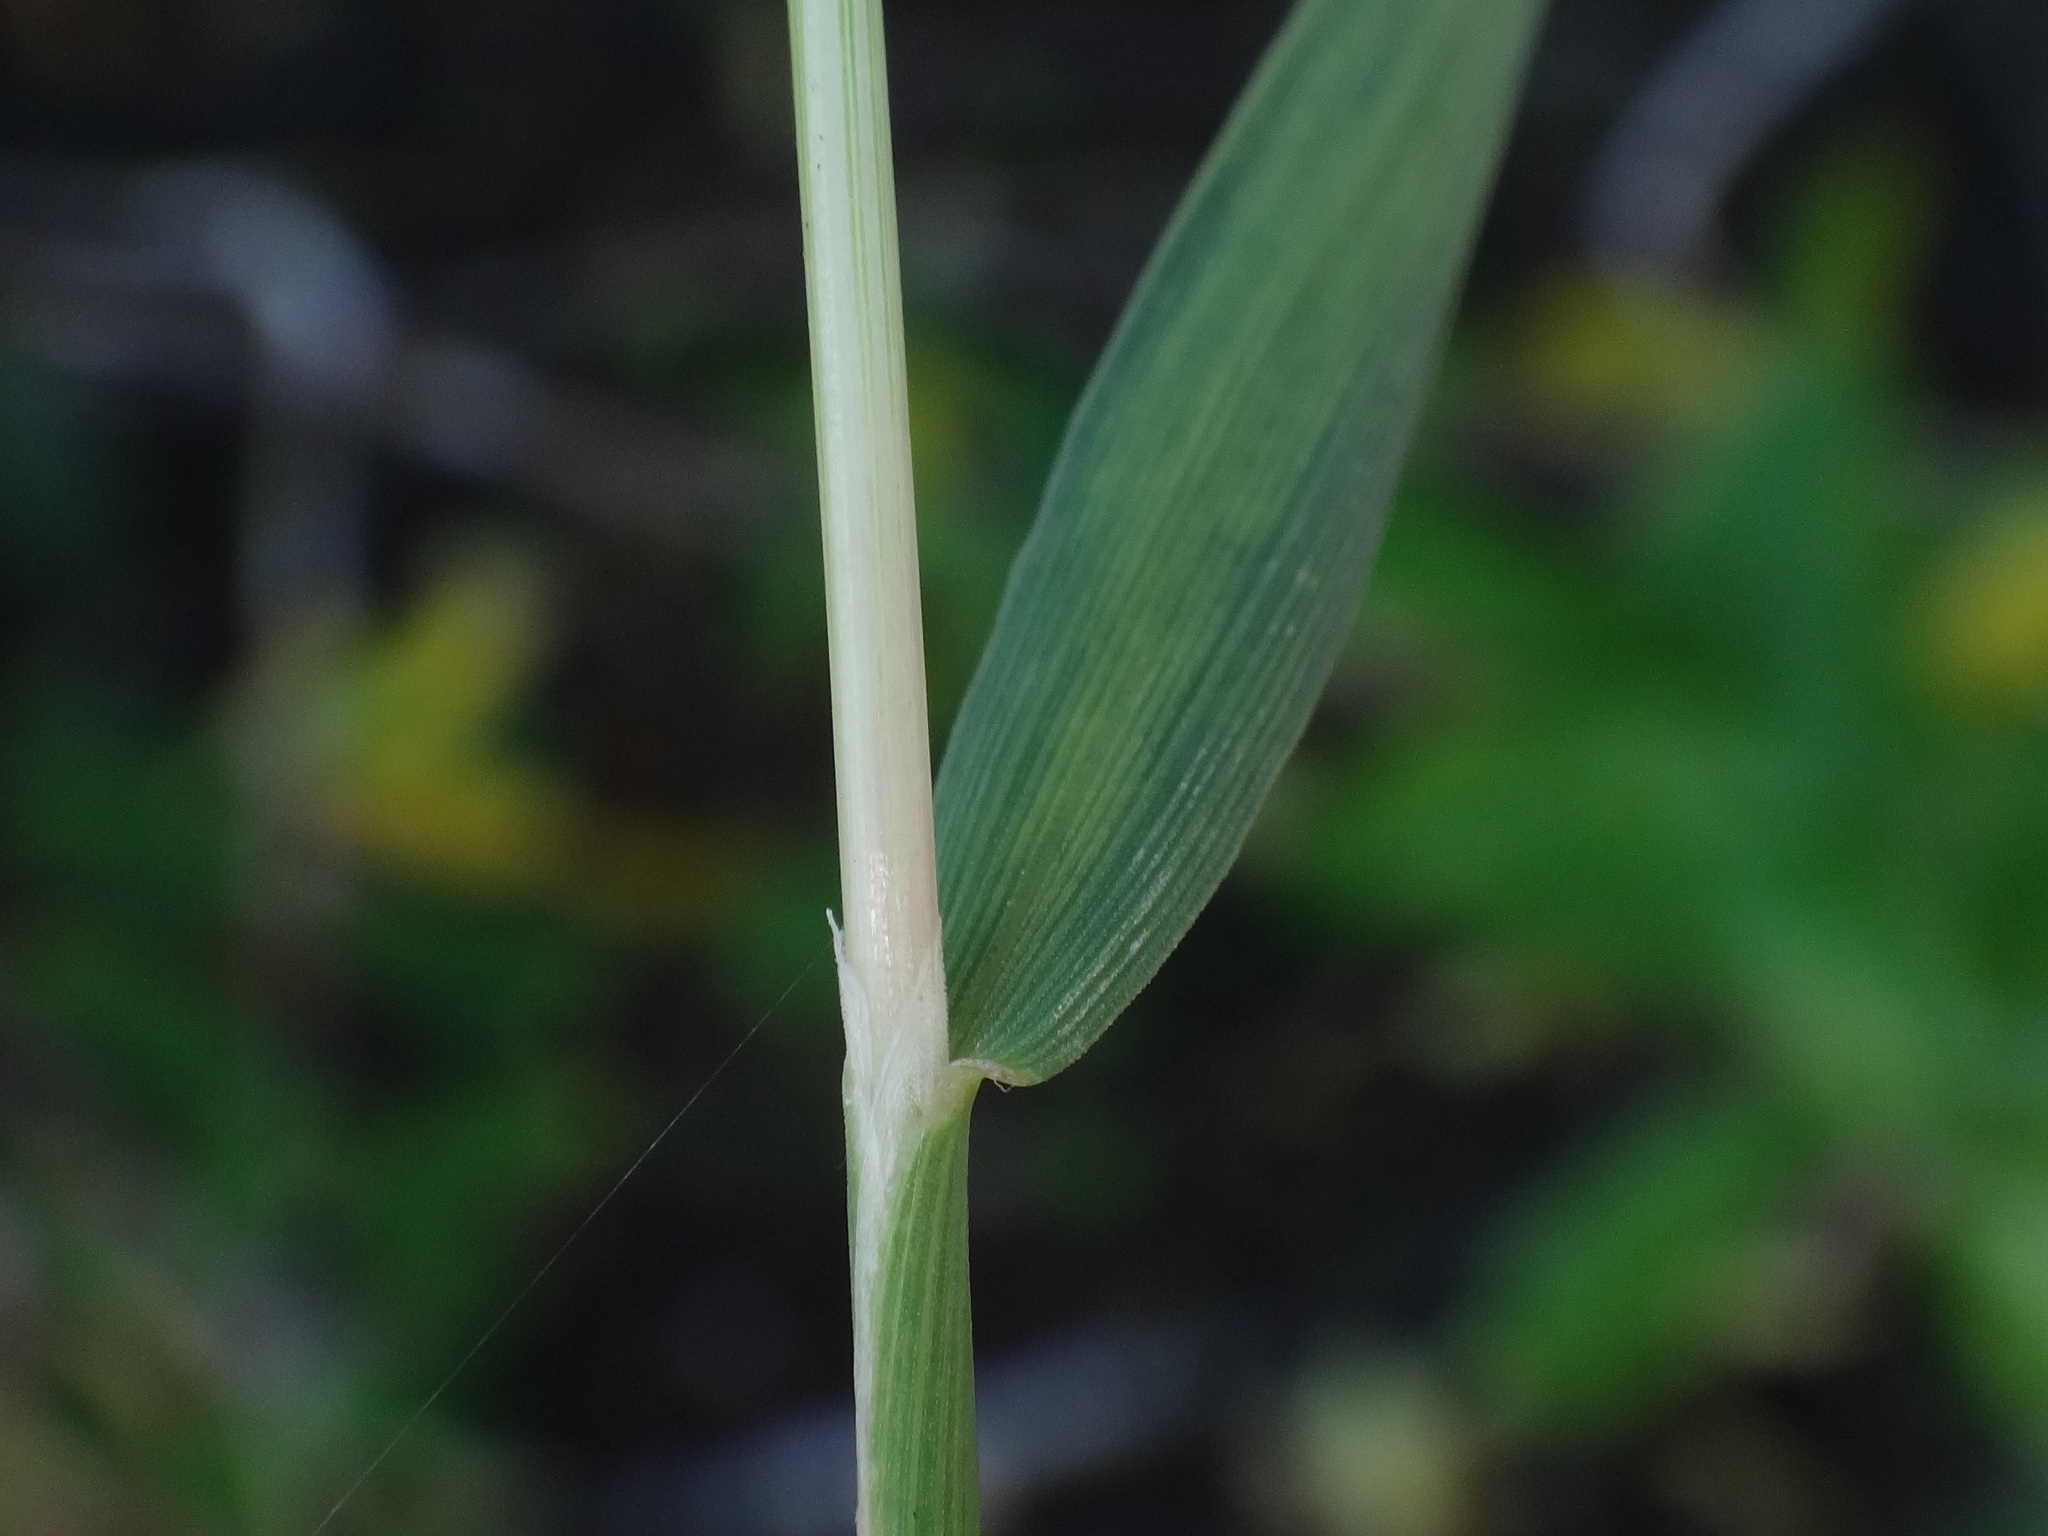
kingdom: Plantae
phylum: Tracheophyta
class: Liliopsida
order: Poales
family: Poaceae
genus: Polypogon
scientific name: Polypogon viridis
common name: Water bent
